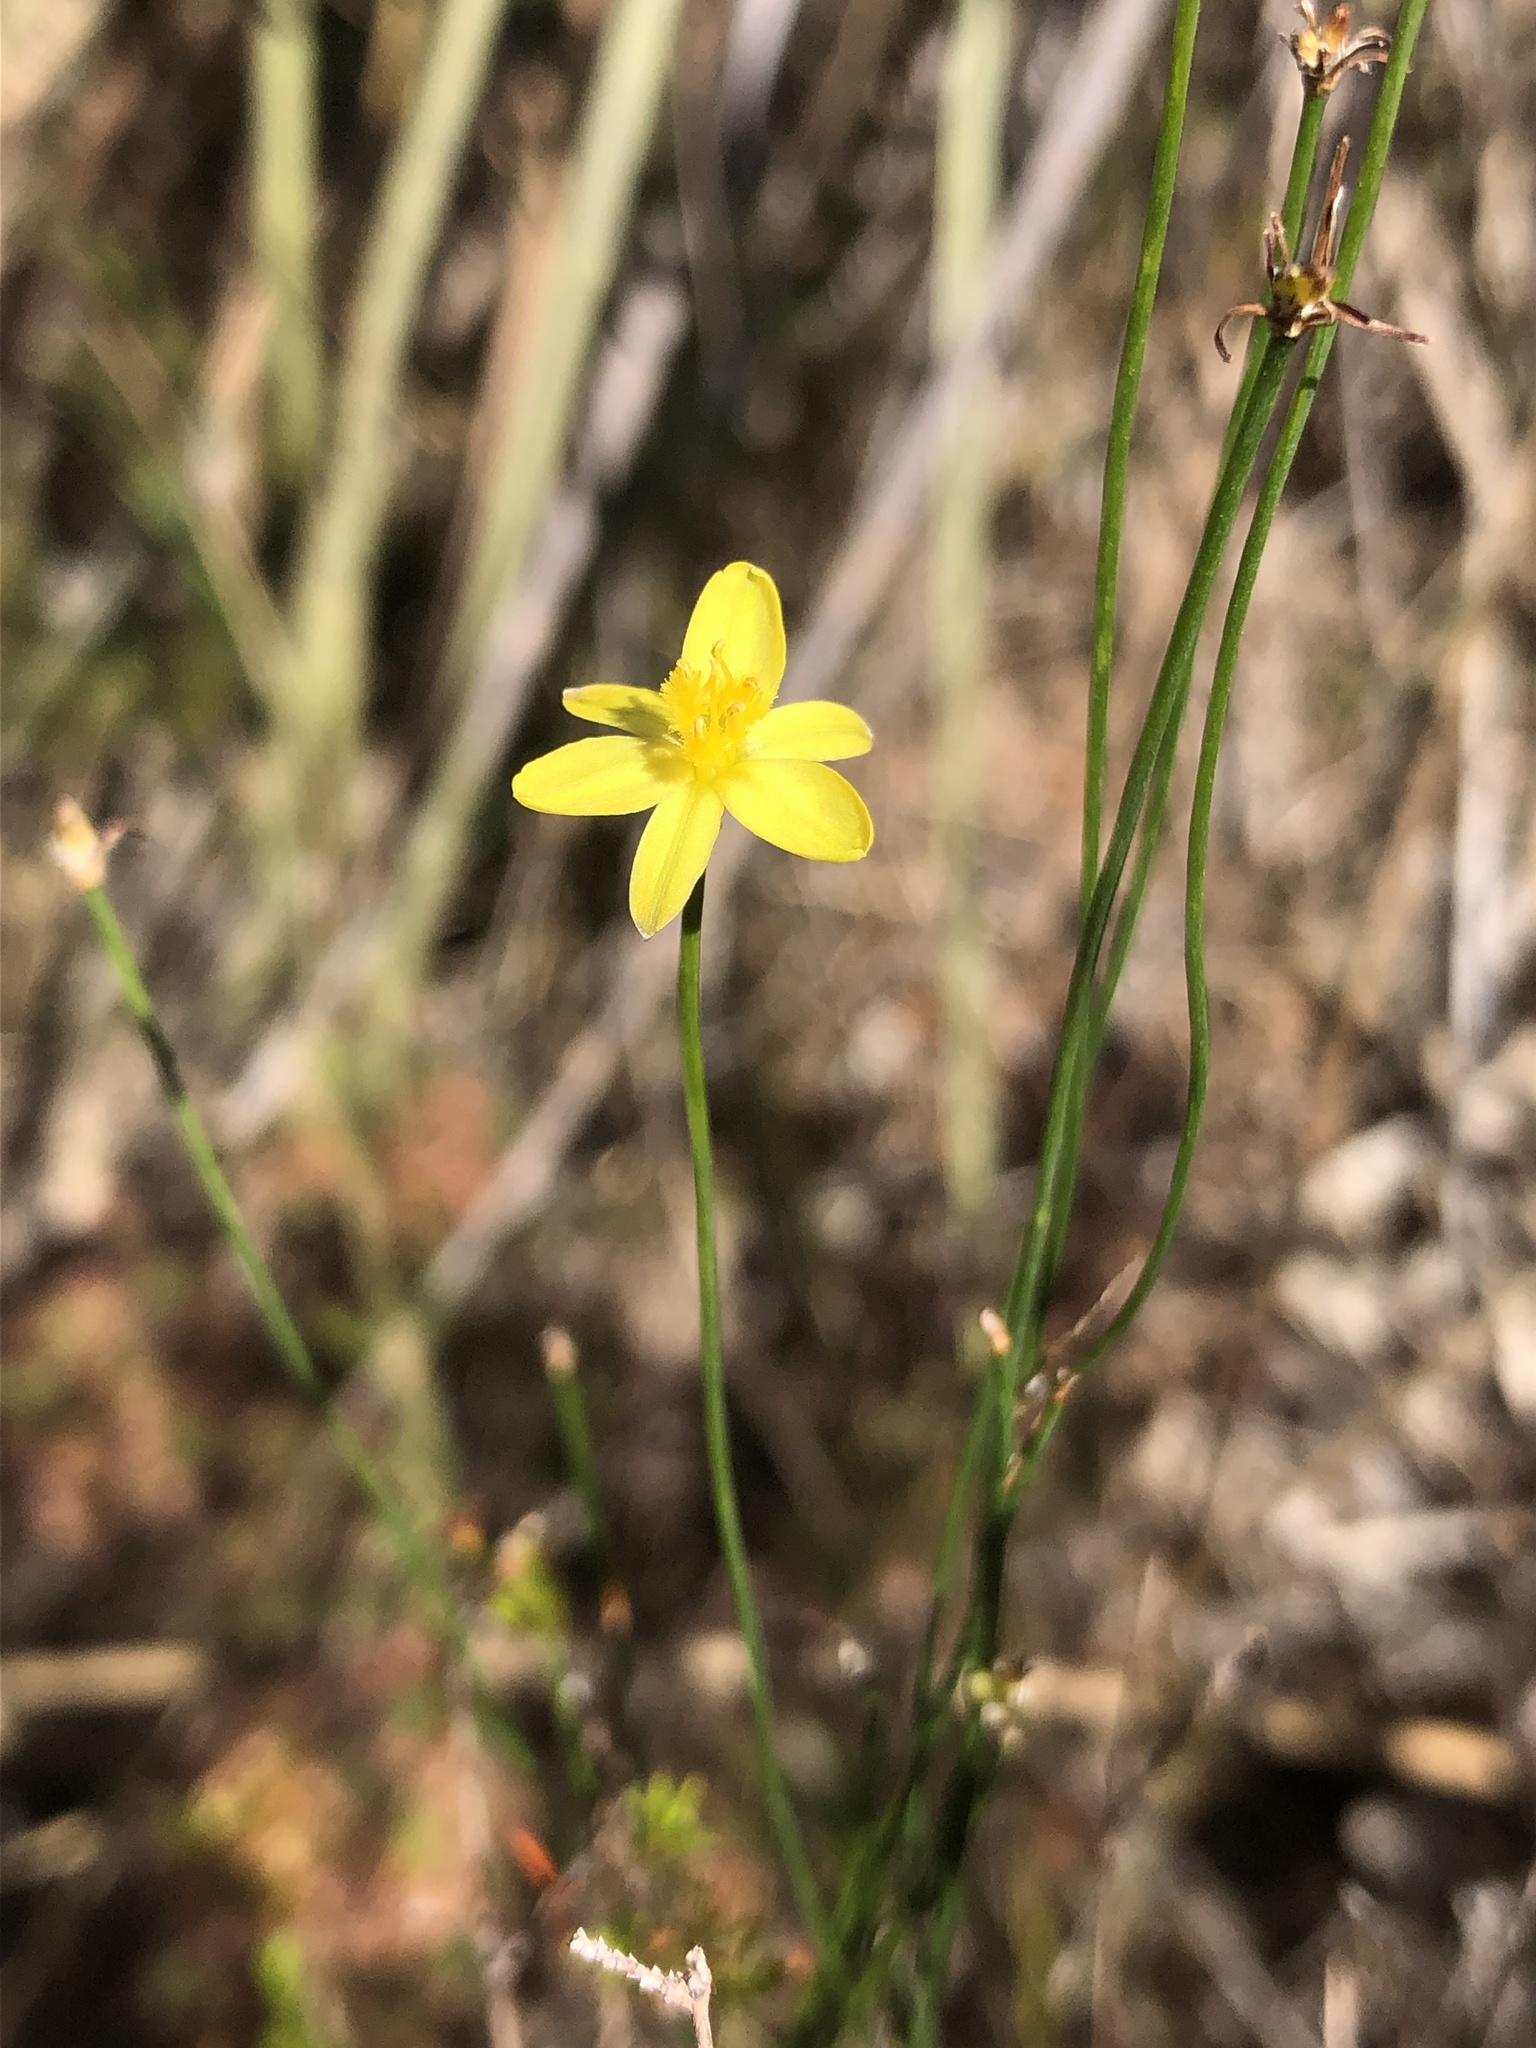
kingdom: Plantae
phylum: Tracheophyta
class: Liliopsida
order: Asparagales
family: Asphodelaceae
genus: Tricoryne
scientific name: Tricoryne elatior
